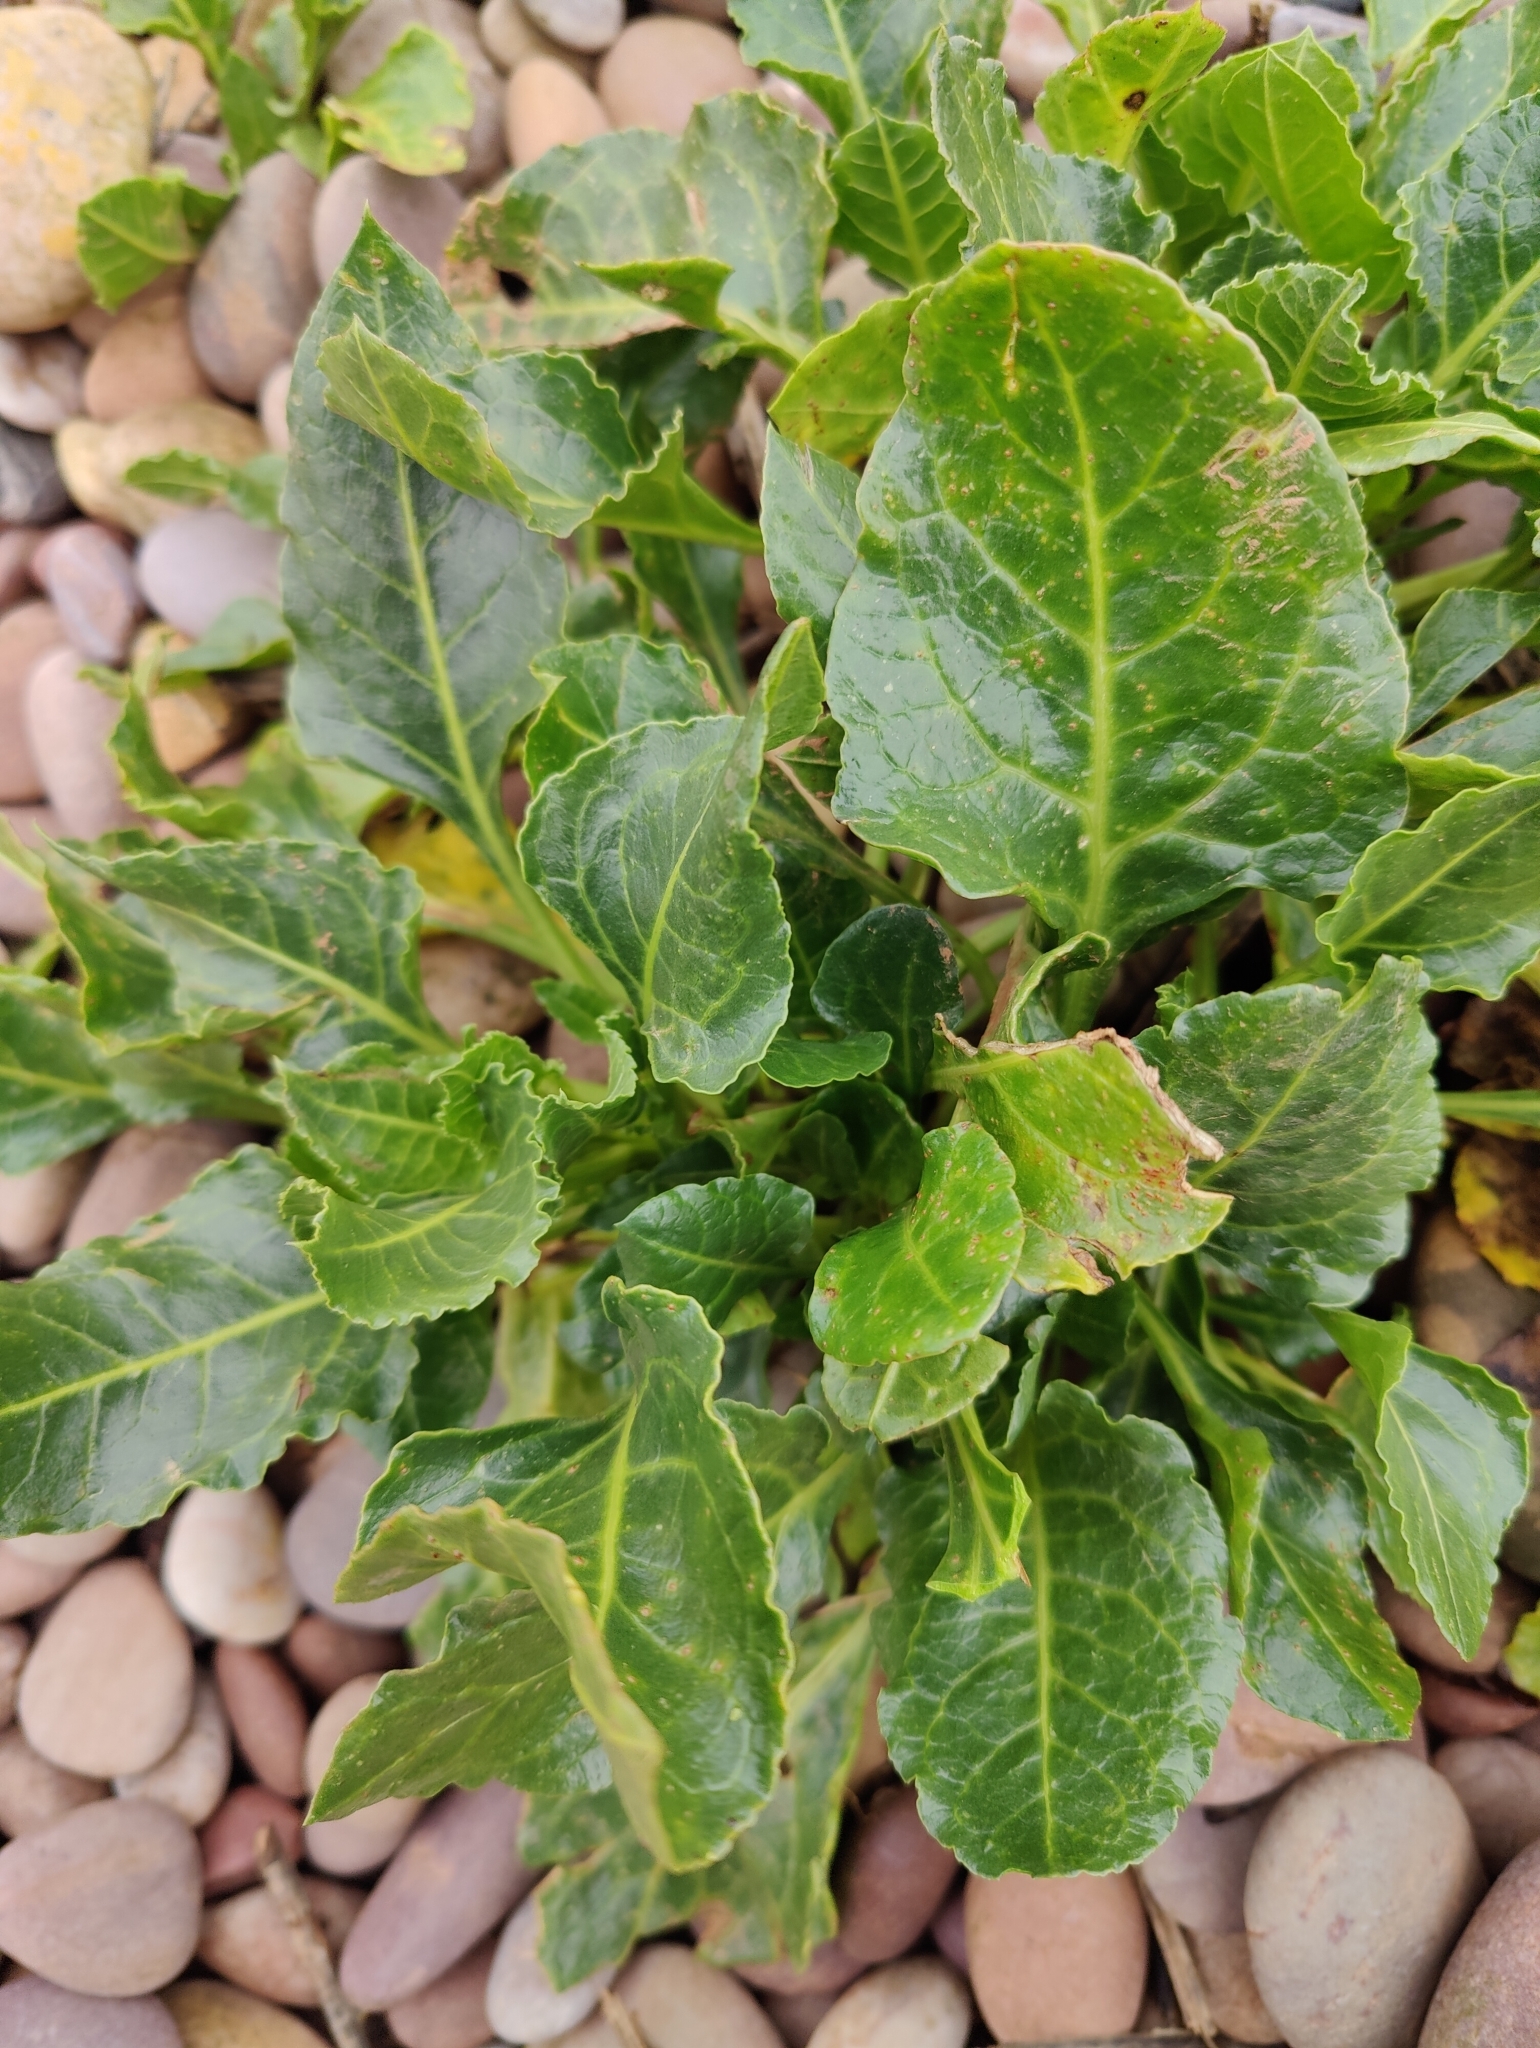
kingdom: Plantae
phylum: Tracheophyta
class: Magnoliopsida
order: Caryophyllales
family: Amaranthaceae
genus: Beta
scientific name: Beta vulgaris
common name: Beet
